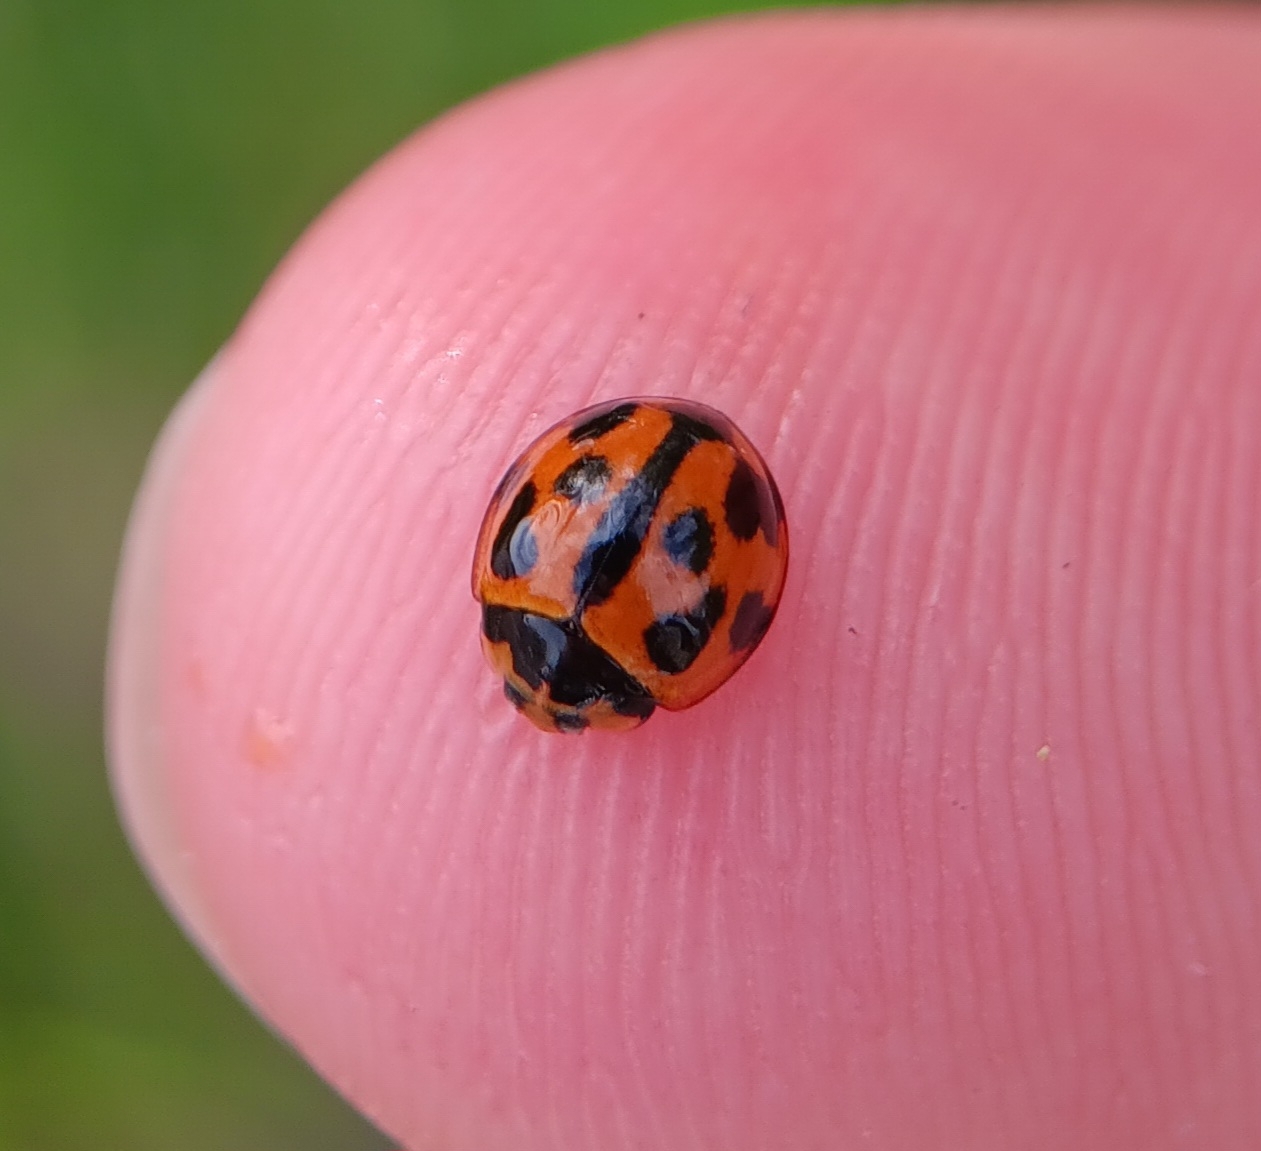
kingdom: Animalia
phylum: Arthropoda
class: Insecta
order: Coleoptera
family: Coccinellidae
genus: Coelophora
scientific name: Coelophora inaequalis
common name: Common australian lady beetle
